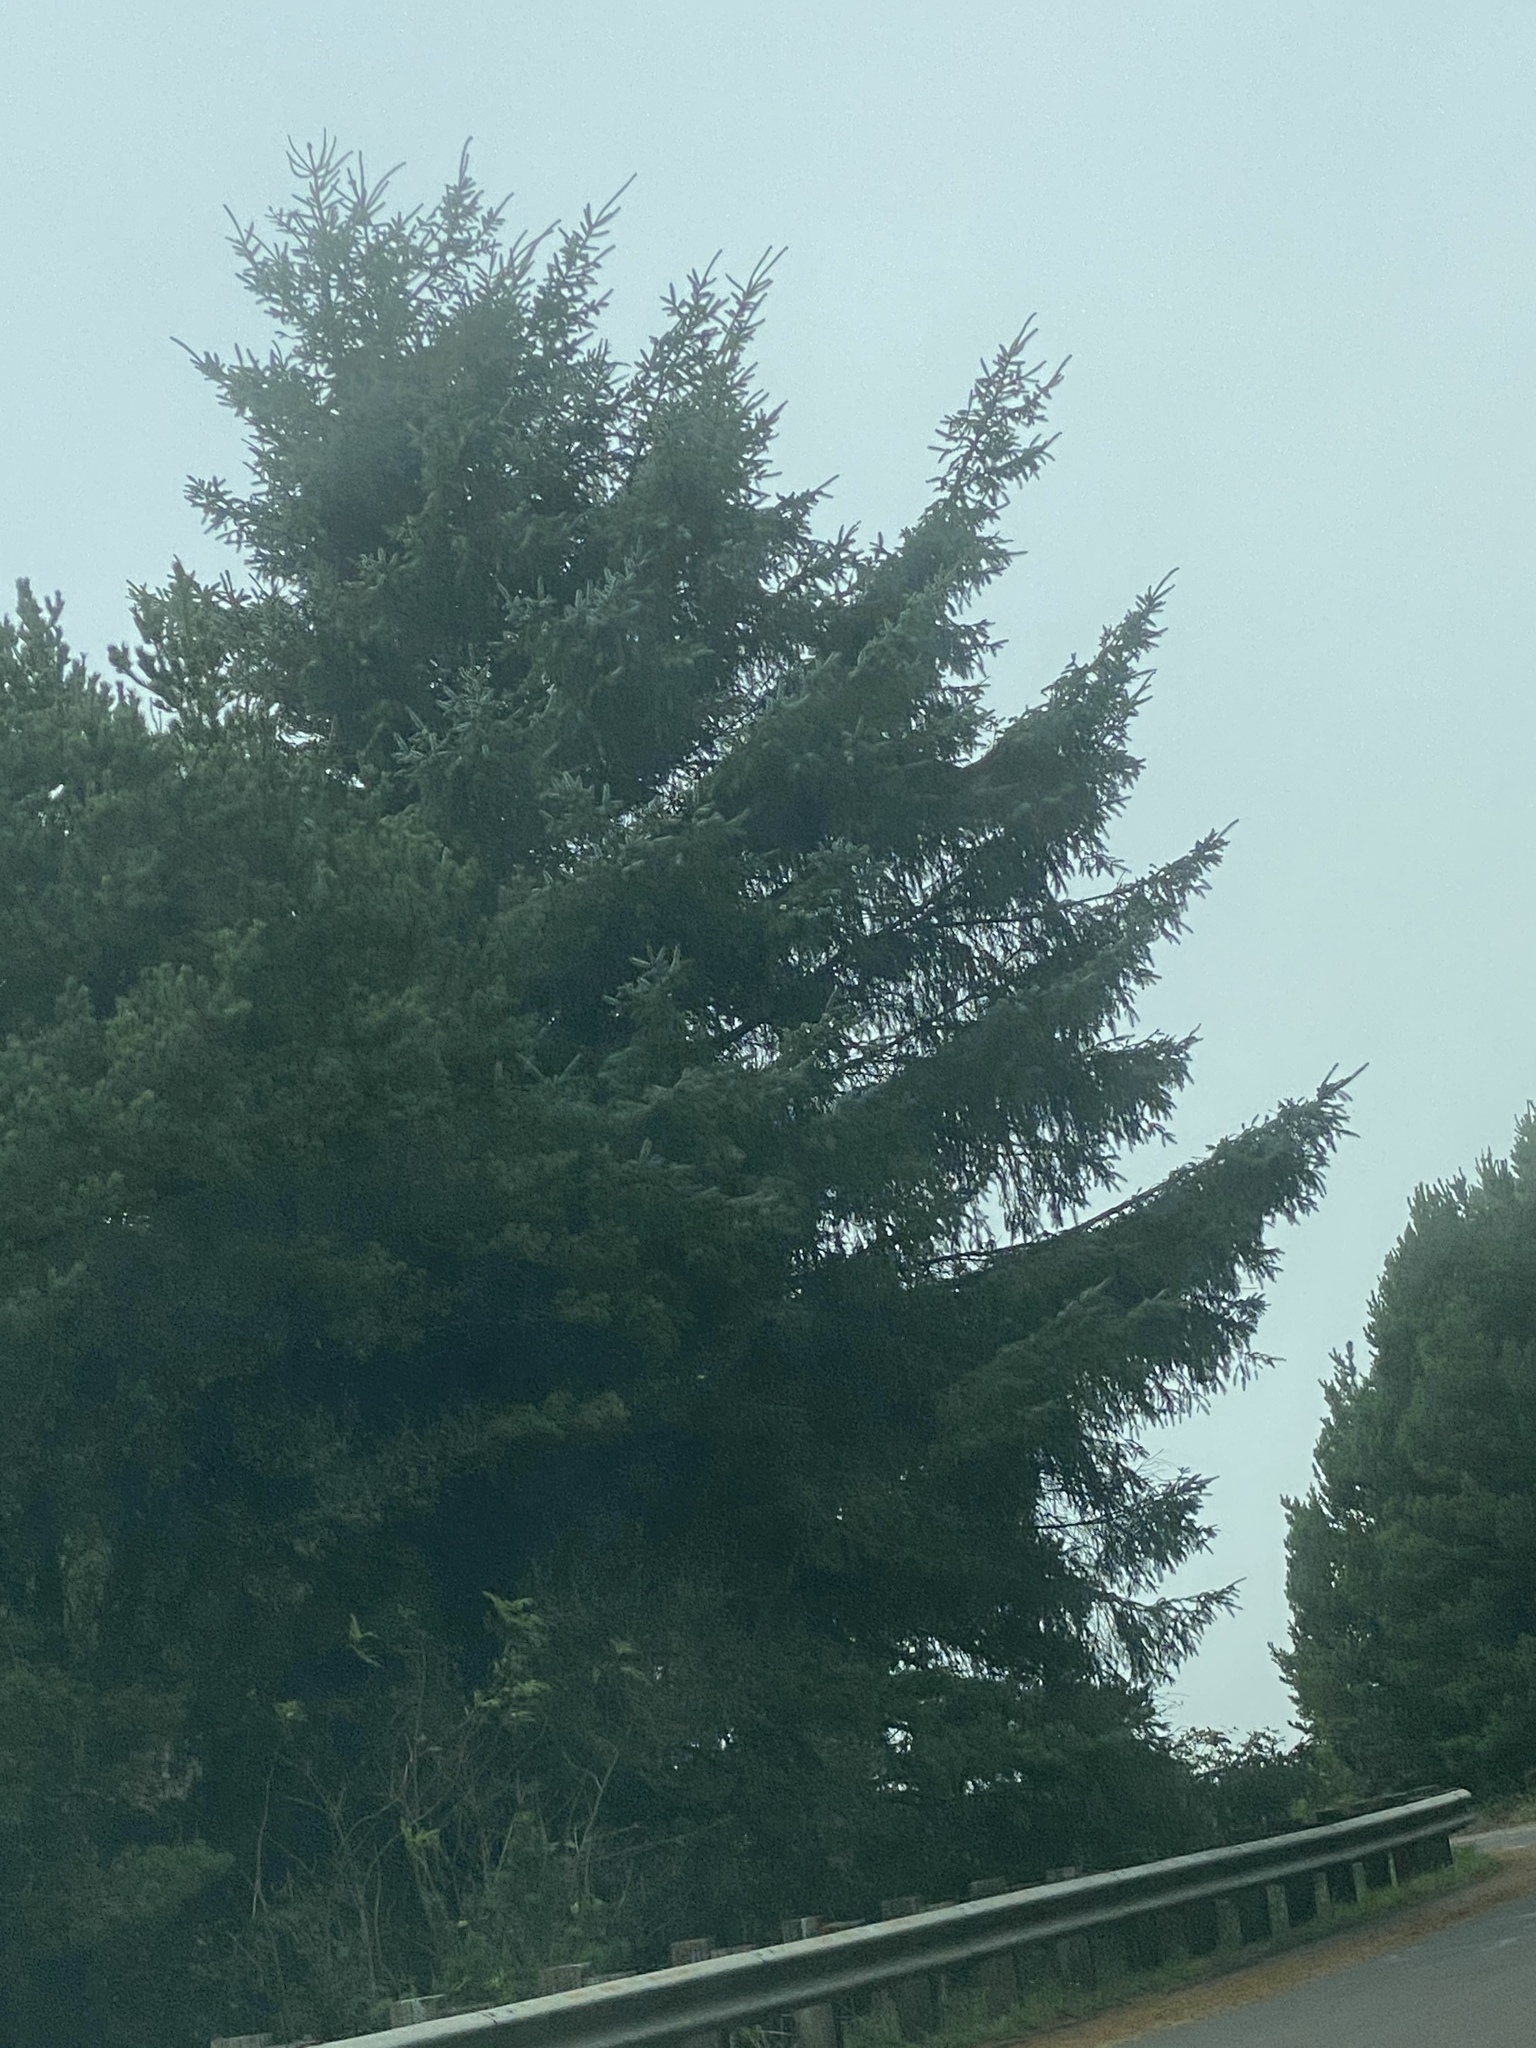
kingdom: Plantae
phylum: Tracheophyta
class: Pinopsida
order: Pinales
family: Pinaceae
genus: Picea
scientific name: Picea sitchensis
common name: Sitka spruce
